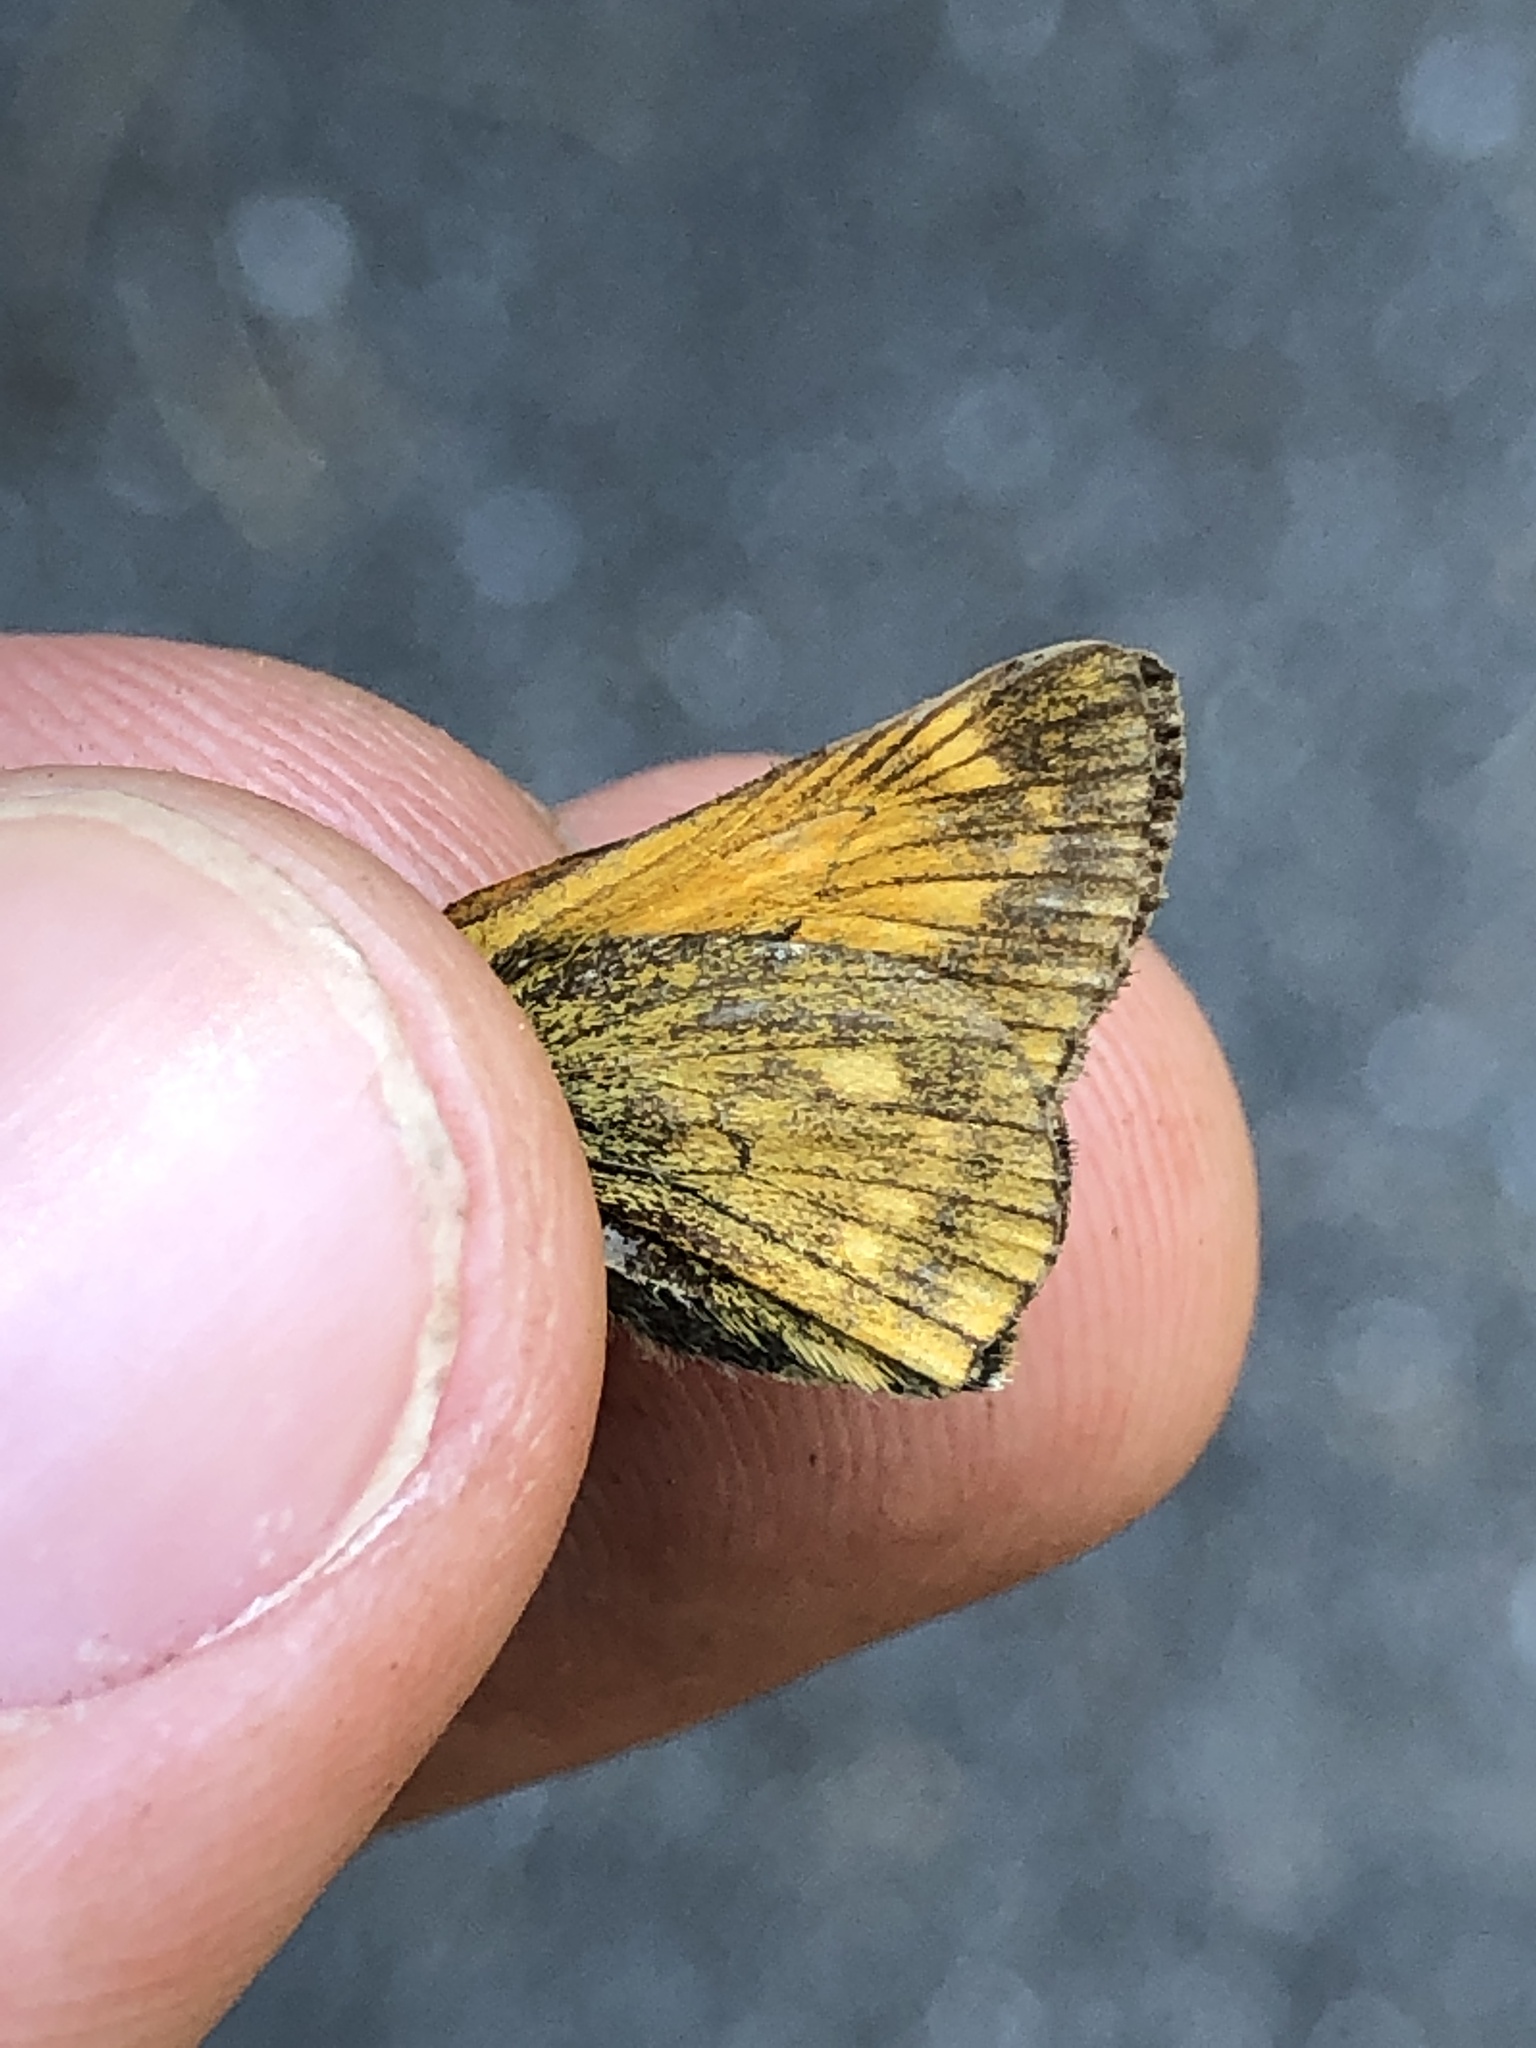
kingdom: Animalia
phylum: Arthropoda
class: Insecta
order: Lepidoptera
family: Hesperiidae
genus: Ochlodes
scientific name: Ochlodes venata
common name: Large skipper
